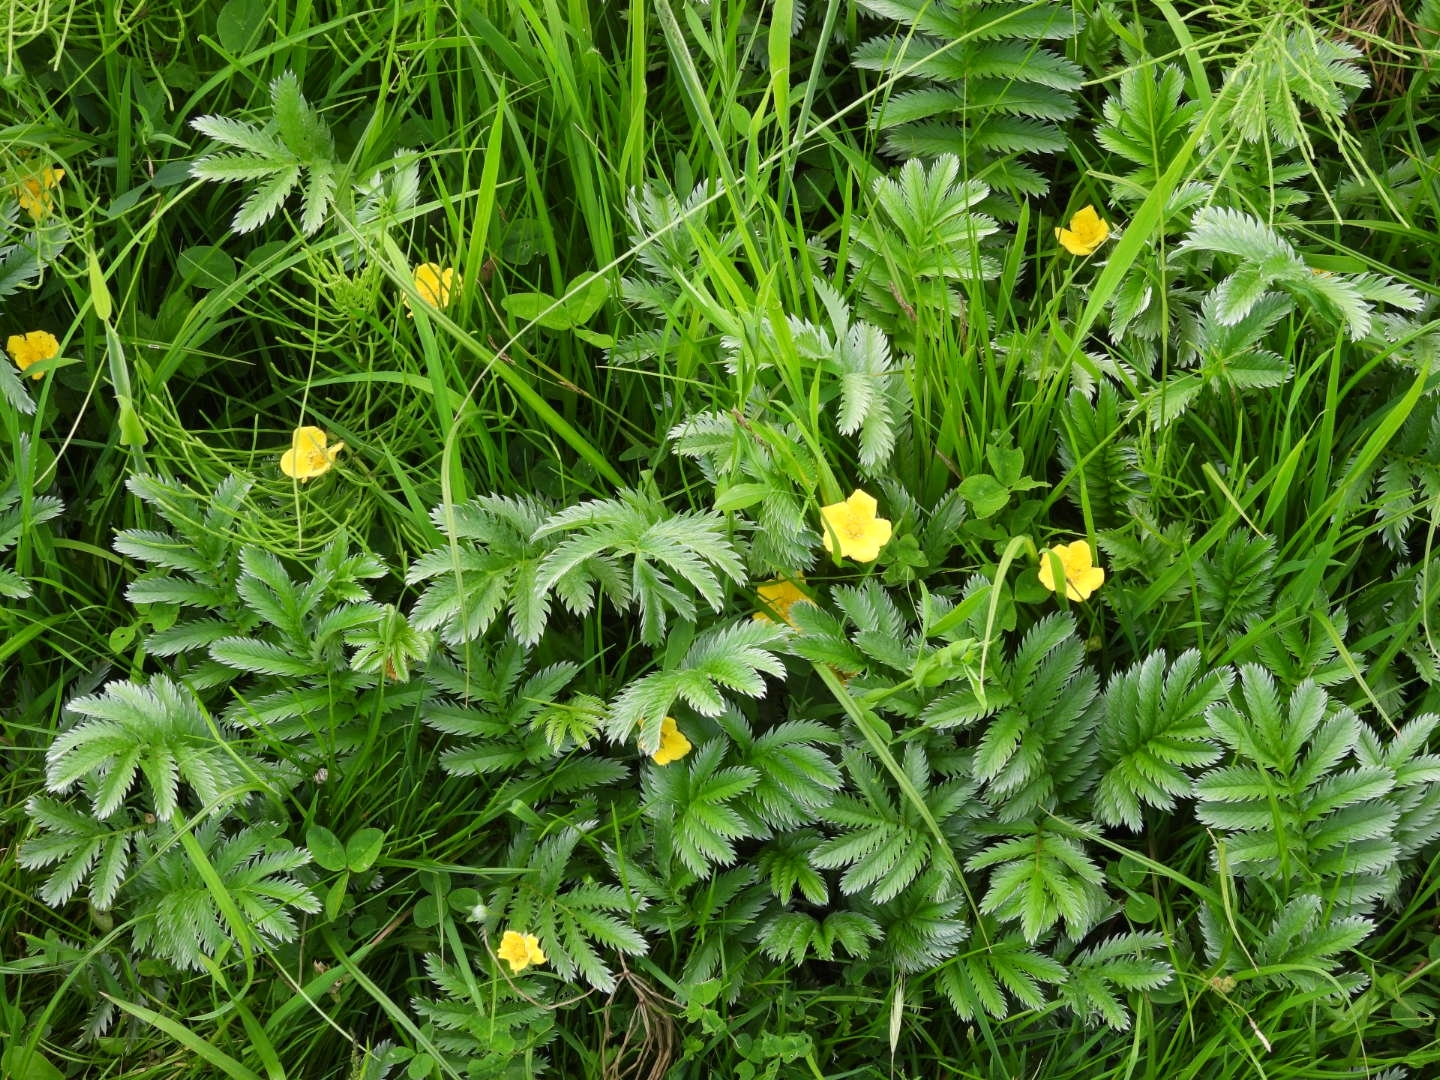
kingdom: Plantae
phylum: Tracheophyta
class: Magnoliopsida
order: Rosales
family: Rosaceae
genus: Argentina
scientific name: Argentina anserina
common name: Common silverweed
